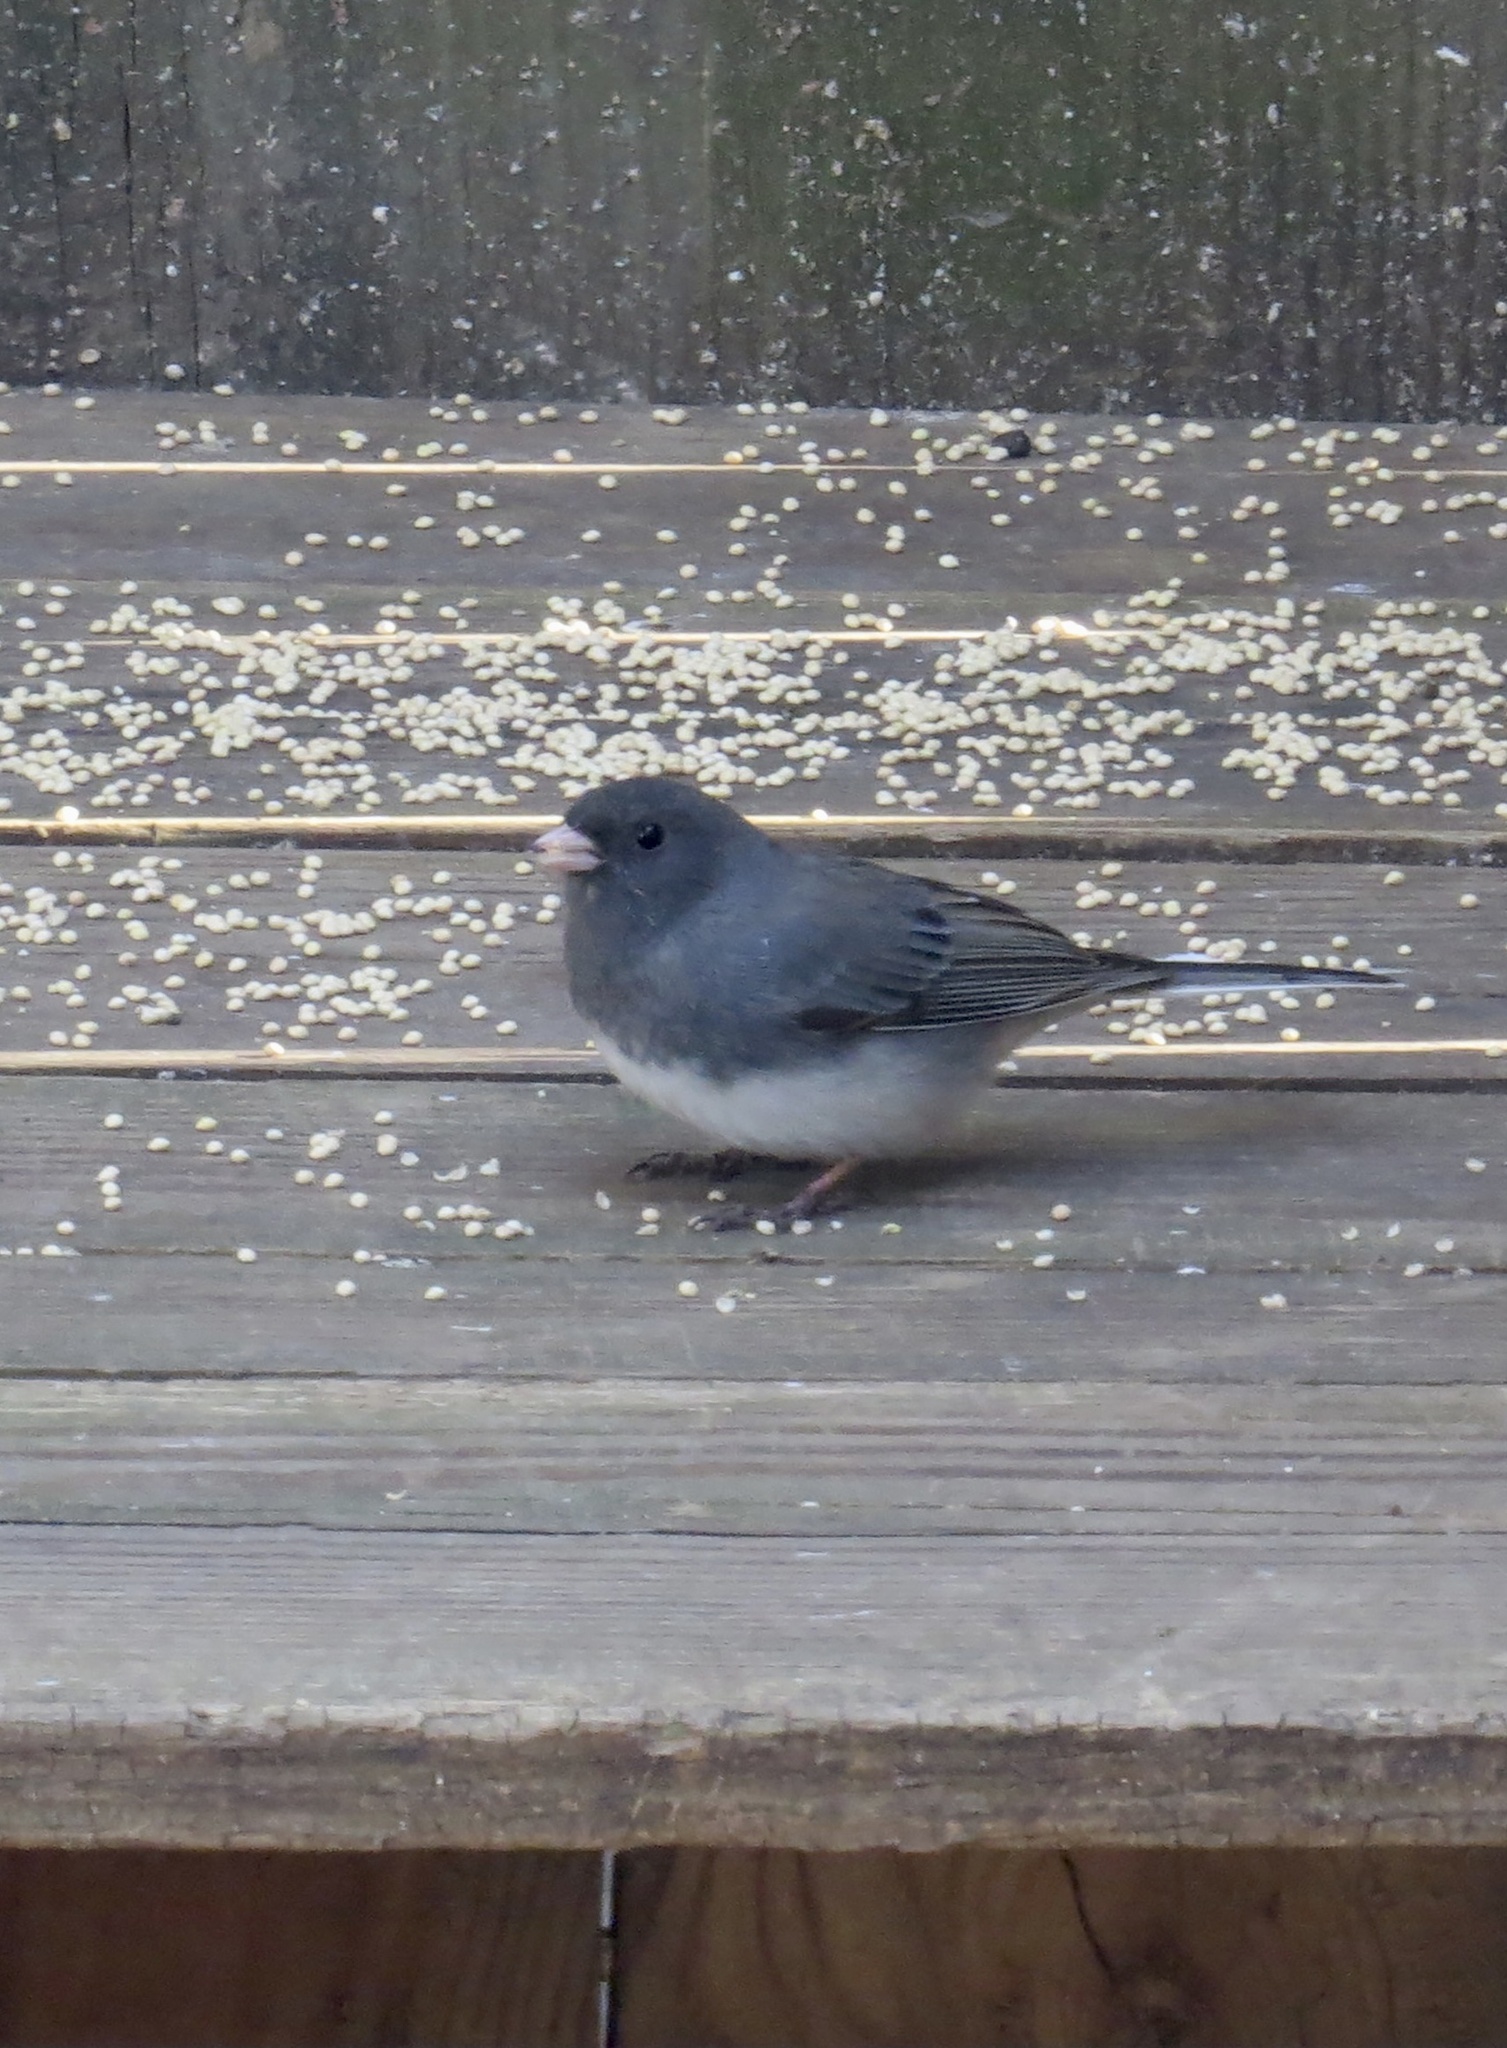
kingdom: Animalia
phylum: Chordata
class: Aves
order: Passeriformes
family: Passerellidae
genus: Junco
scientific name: Junco hyemalis
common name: Dark-eyed junco
